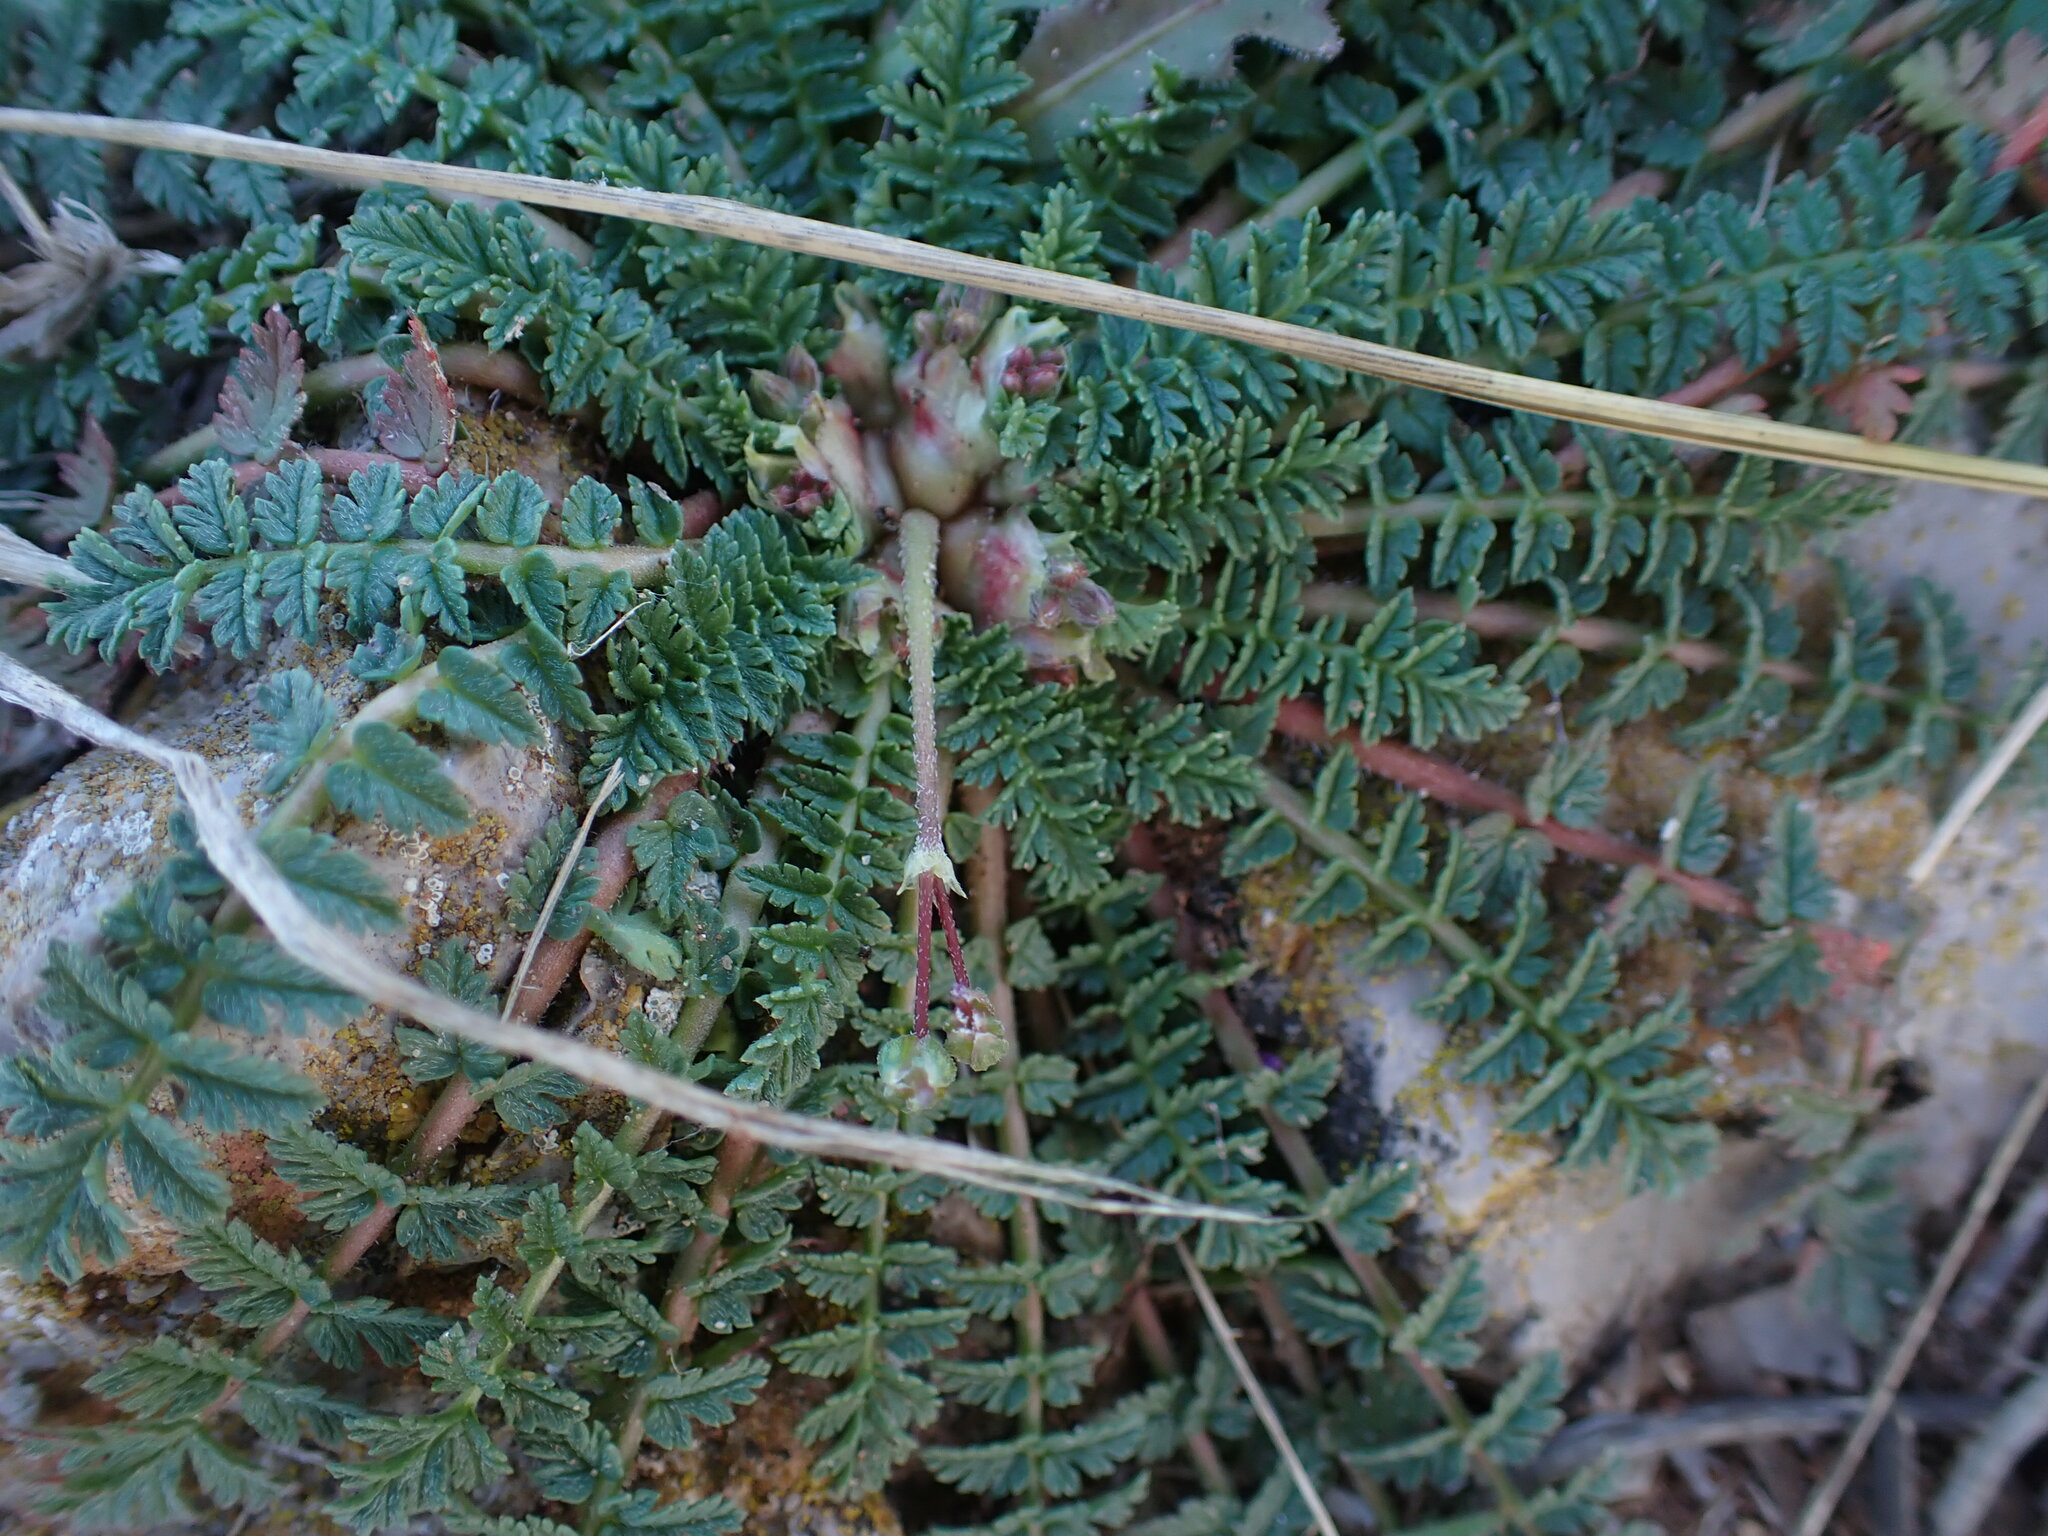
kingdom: Plantae
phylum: Tracheophyta
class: Magnoliopsida
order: Geraniales
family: Geraniaceae
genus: Erodium
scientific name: Erodium cicutarium
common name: Common stork's-bill
